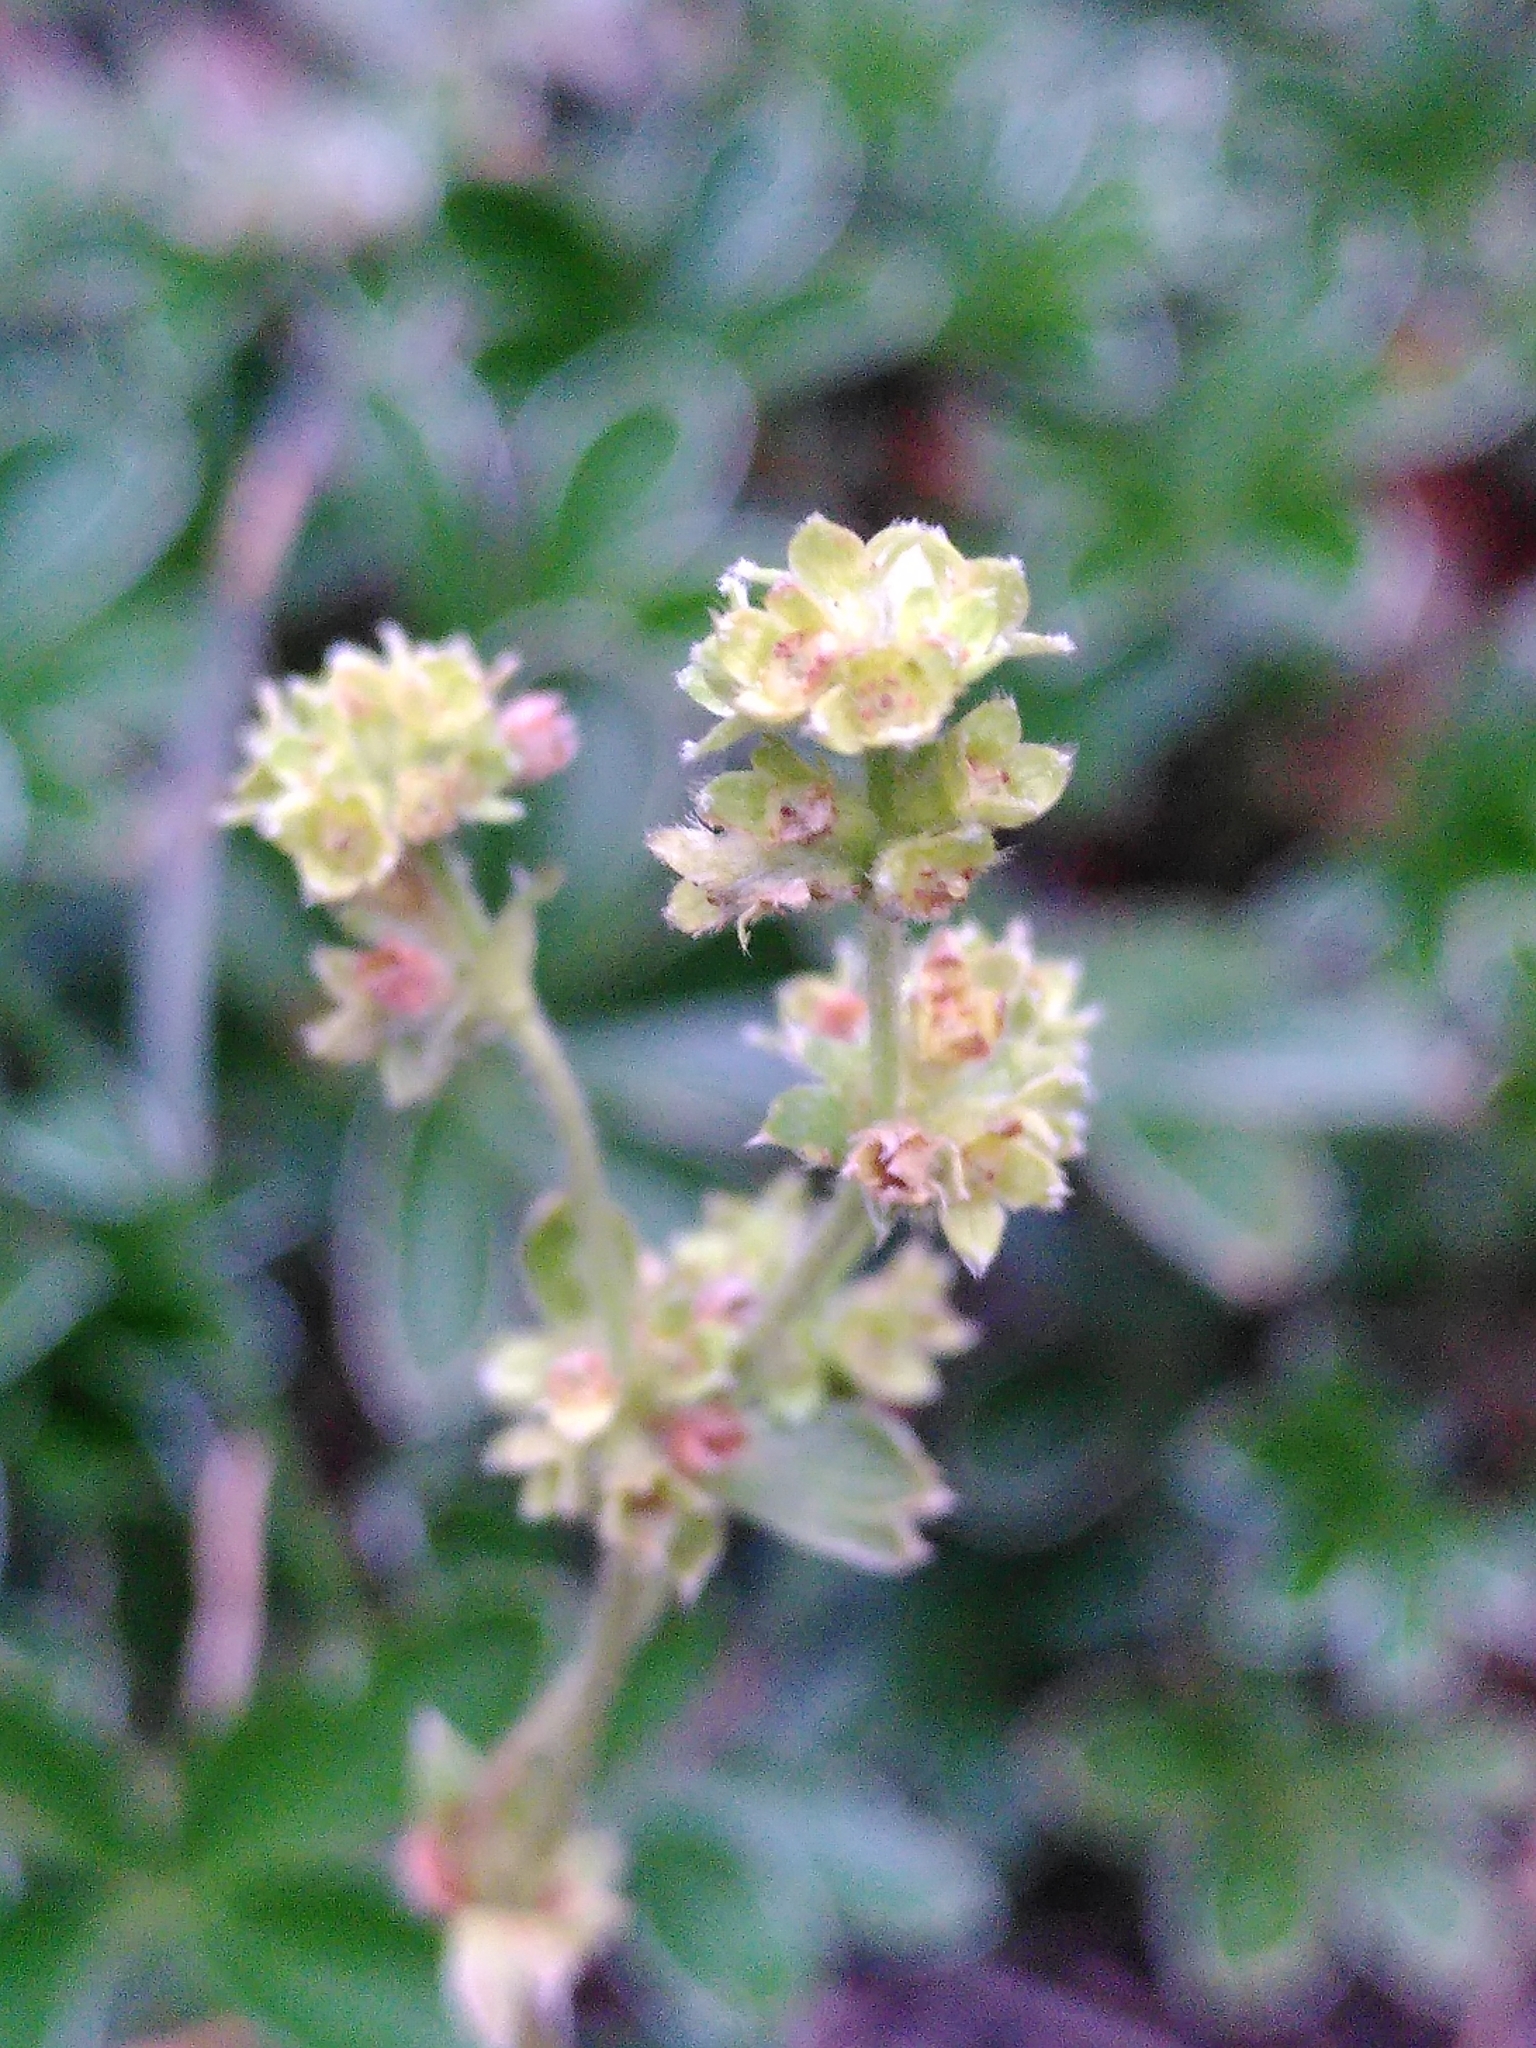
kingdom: Plantae
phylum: Tracheophyta
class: Magnoliopsida
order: Rosales
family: Rosaceae
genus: Alchemilla
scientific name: Alchemilla saxatilis
